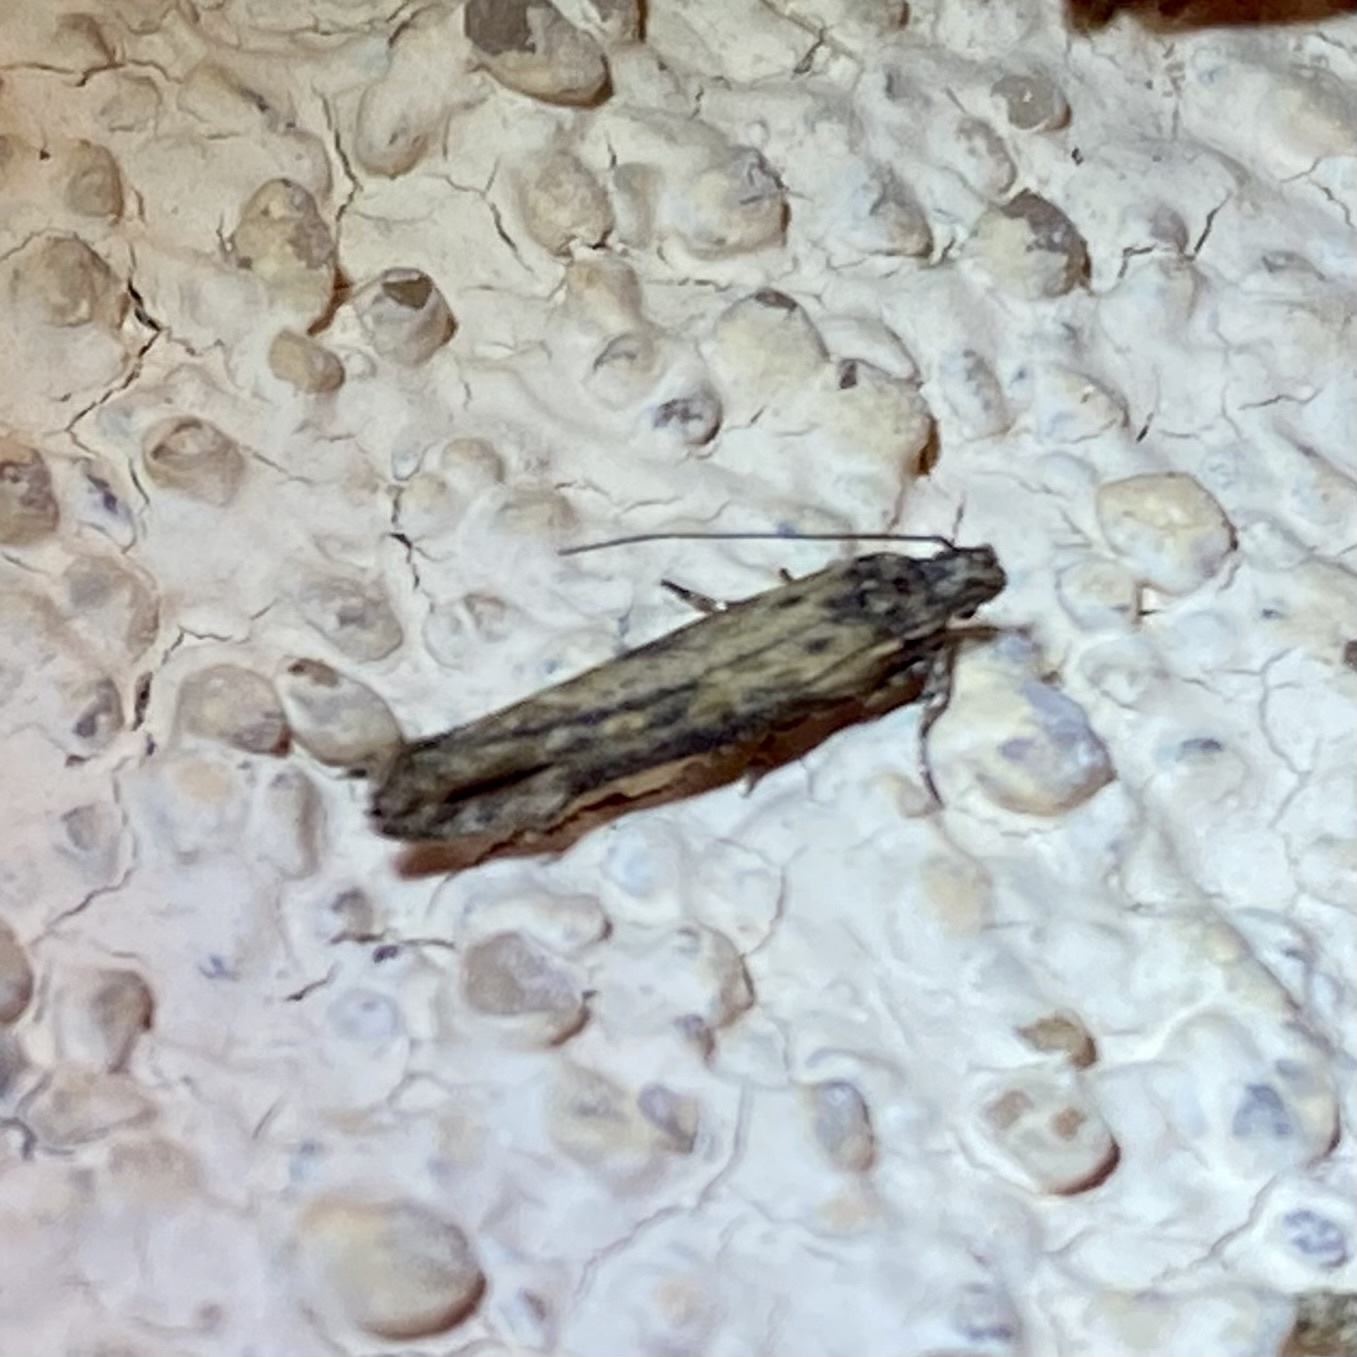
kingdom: Animalia
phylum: Arthropoda
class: Insecta
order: Lepidoptera
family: Gelechiidae
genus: Gnorimoschema
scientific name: Gnorimoschema
